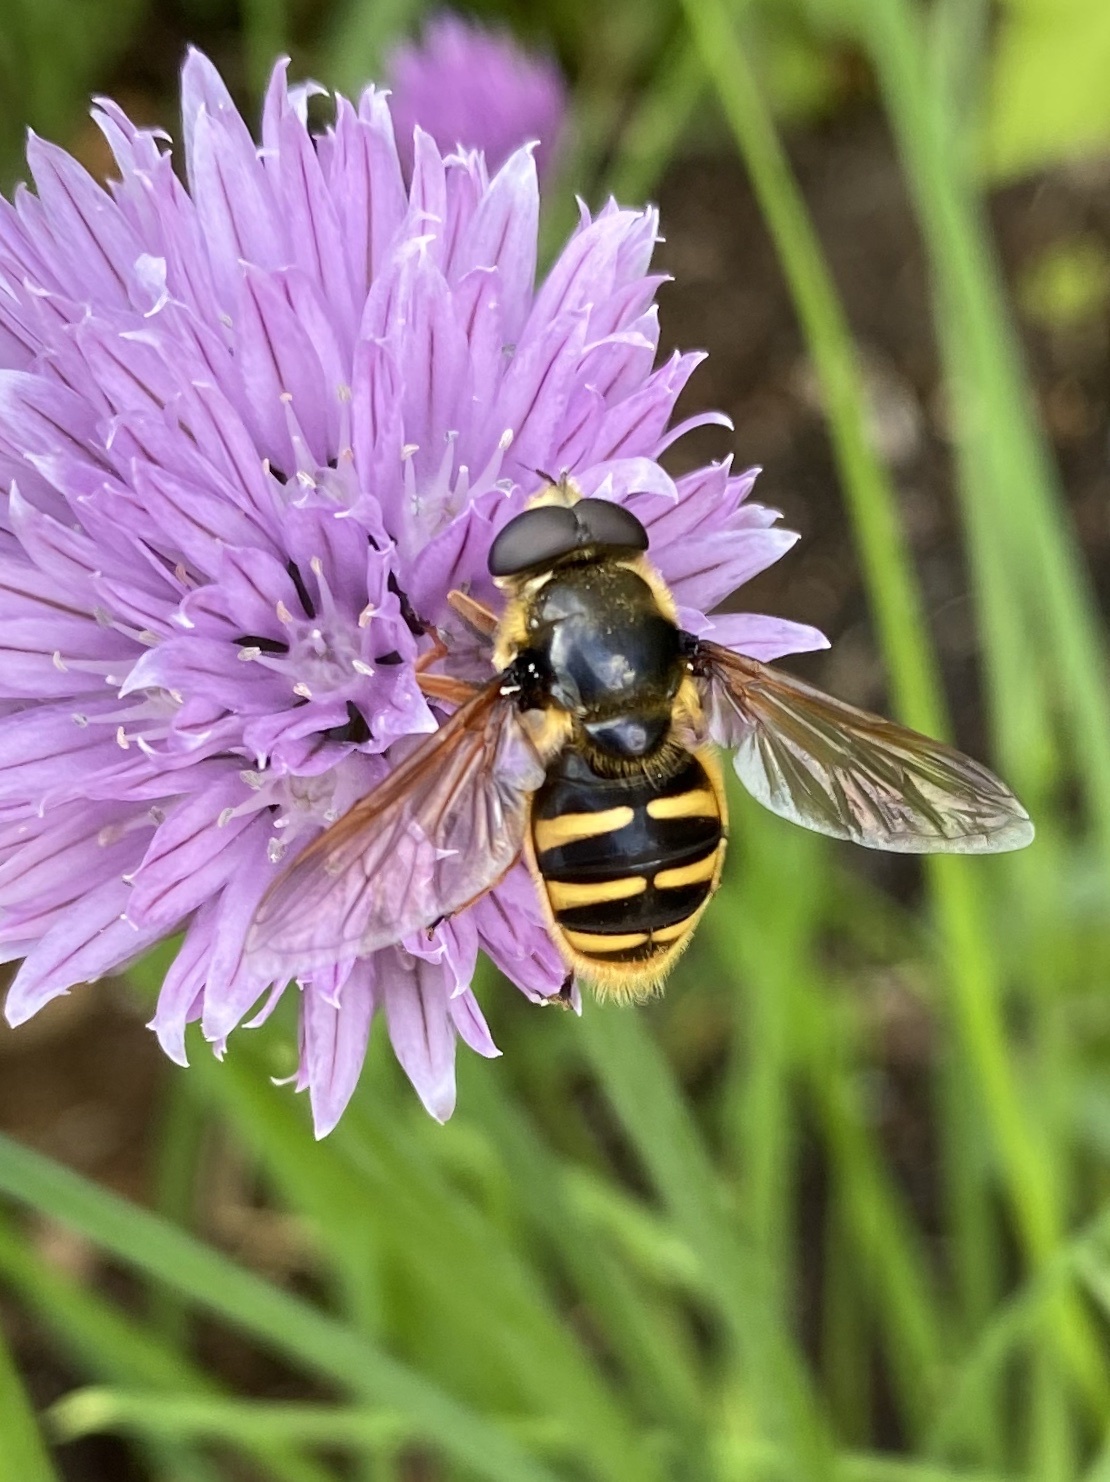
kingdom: Animalia
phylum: Arthropoda
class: Insecta
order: Diptera
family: Syrphidae
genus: Sericomyia
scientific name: Sericomyia silentis
